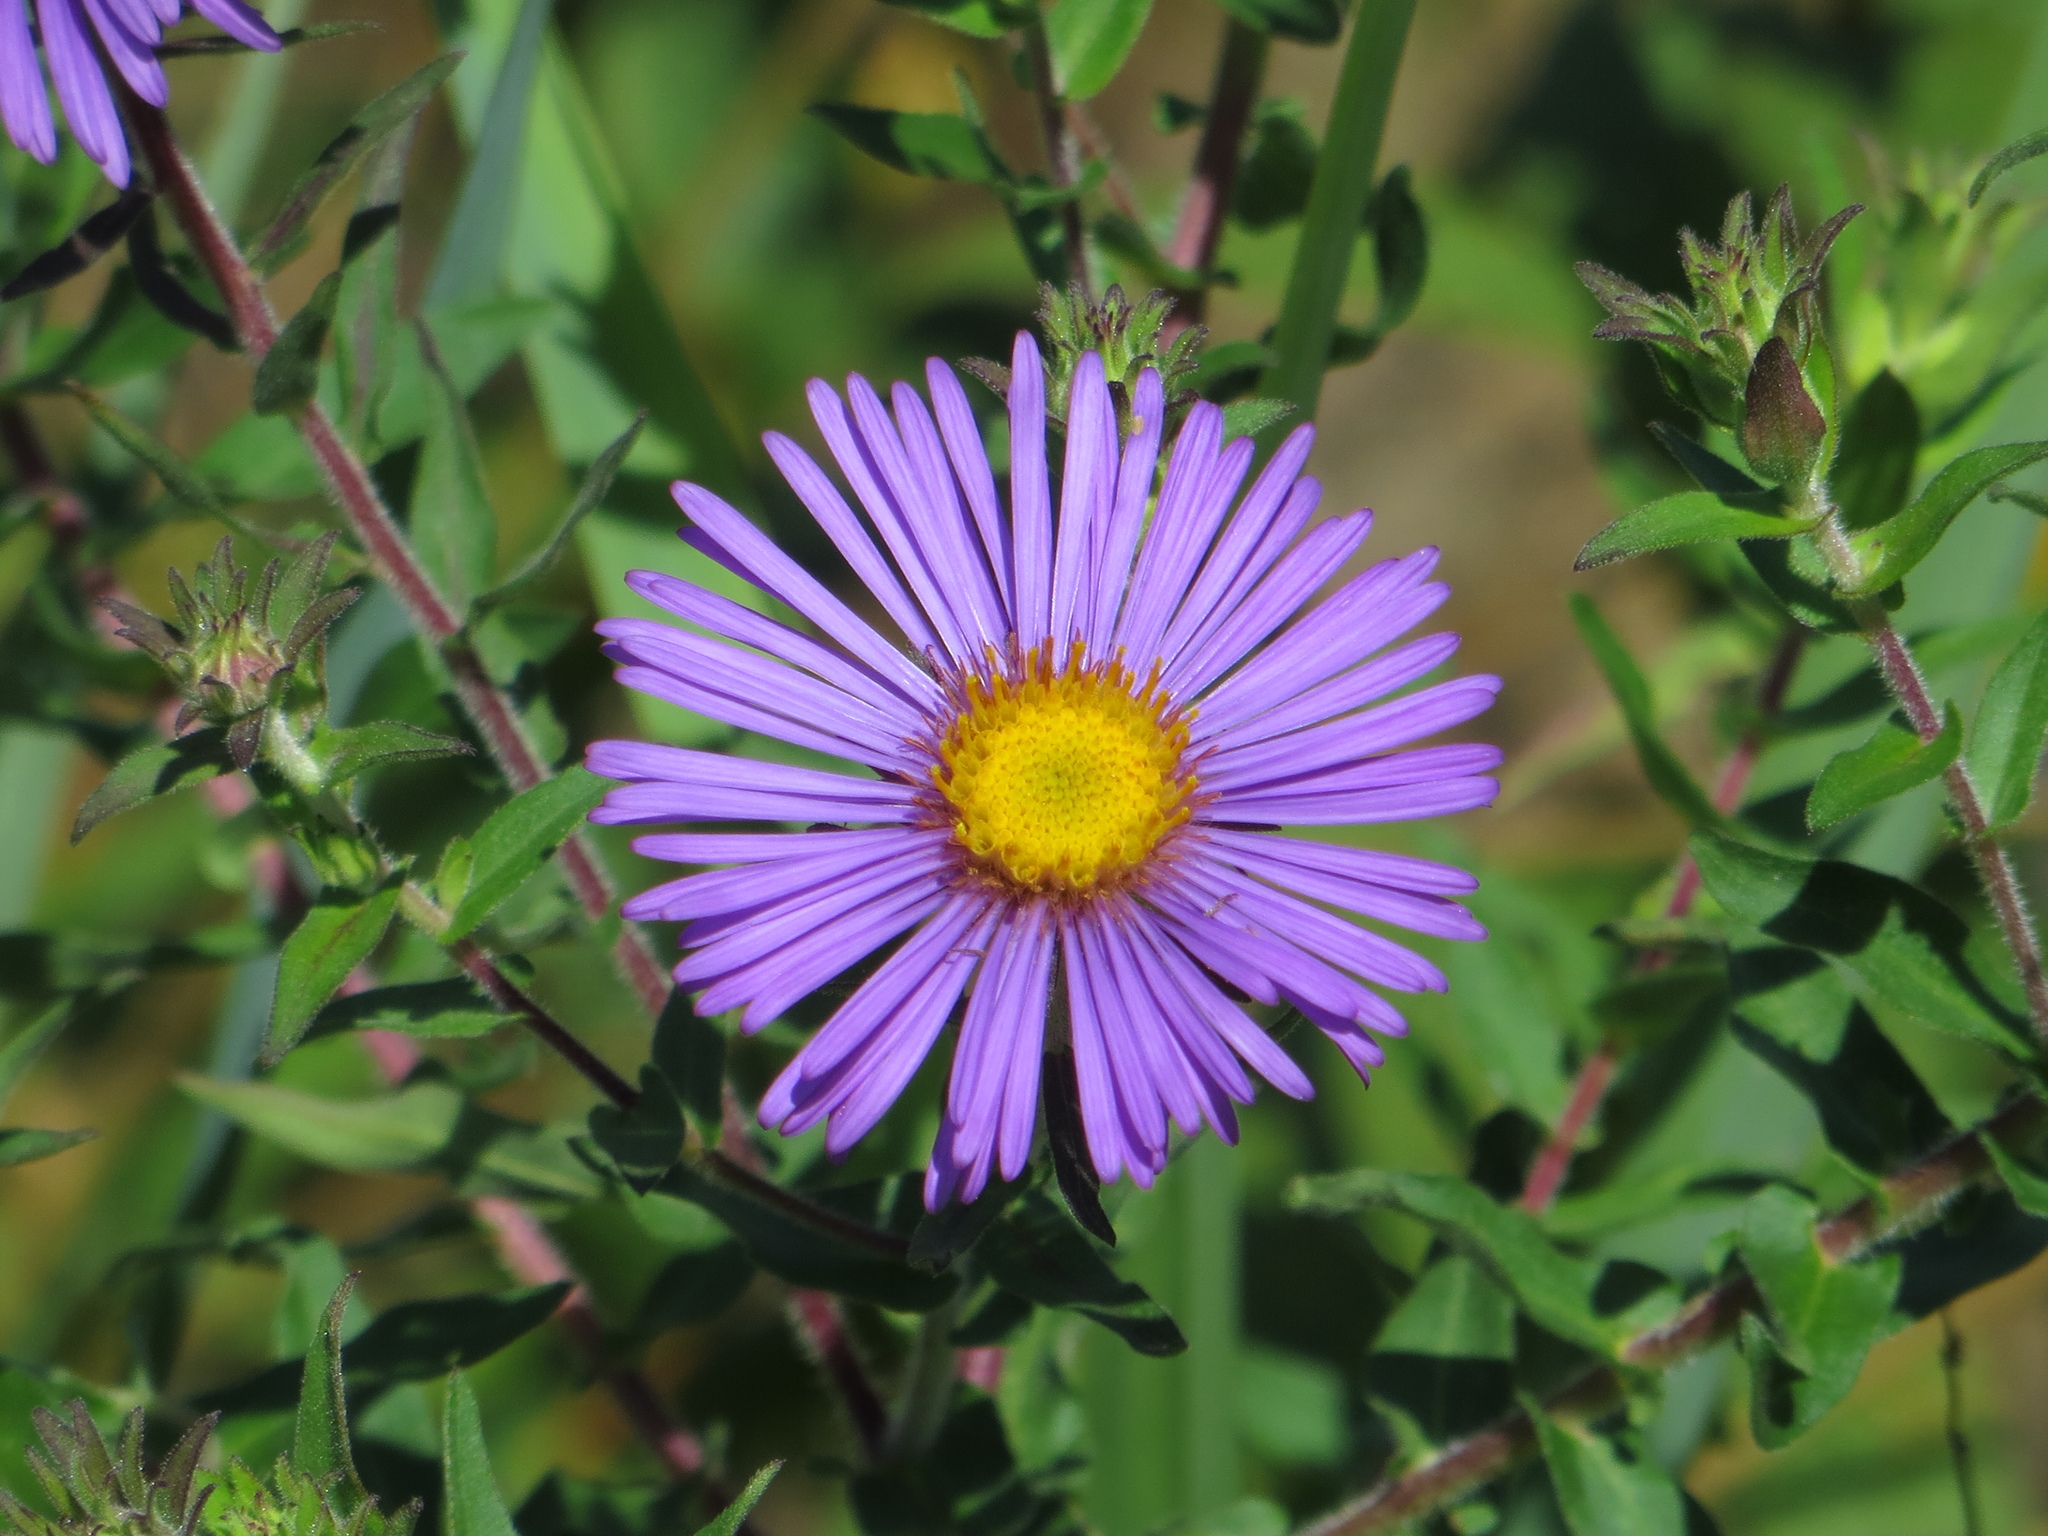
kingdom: Plantae
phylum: Tracheophyta
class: Magnoliopsida
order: Asterales
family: Asteraceae
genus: Symphyotrichum
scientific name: Symphyotrichum novae-angliae
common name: Michaelmas daisy
